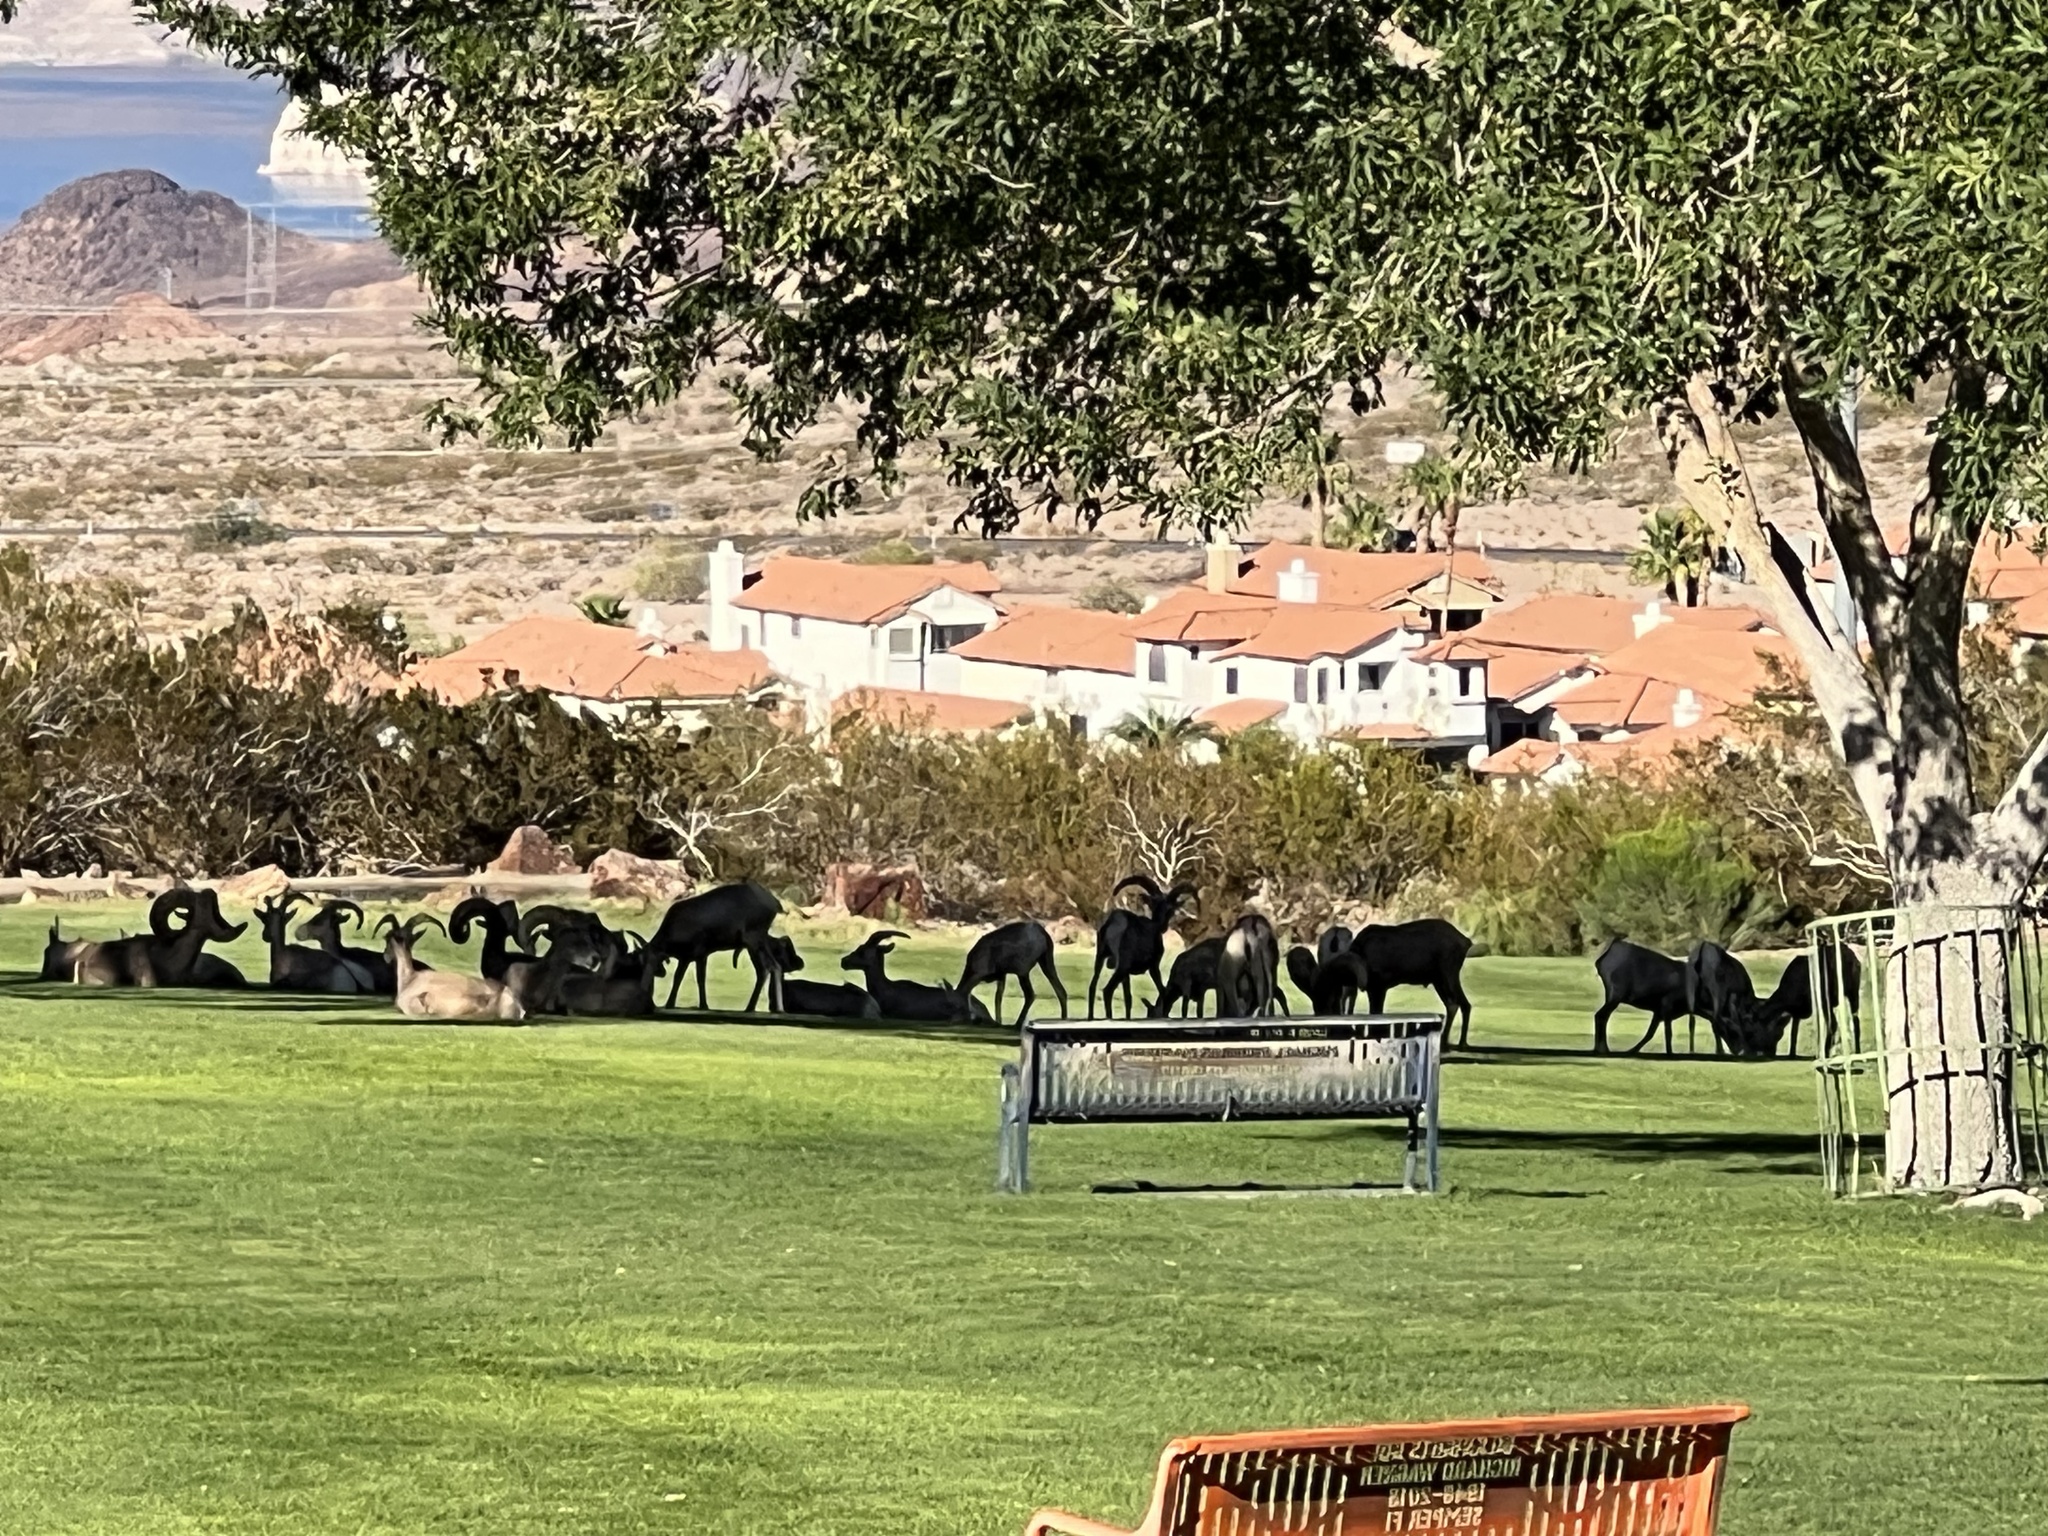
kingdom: Animalia
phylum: Chordata
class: Mammalia
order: Artiodactyla
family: Bovidae
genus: Ovis
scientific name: Ovis canadensis
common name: Bighorn sheep
